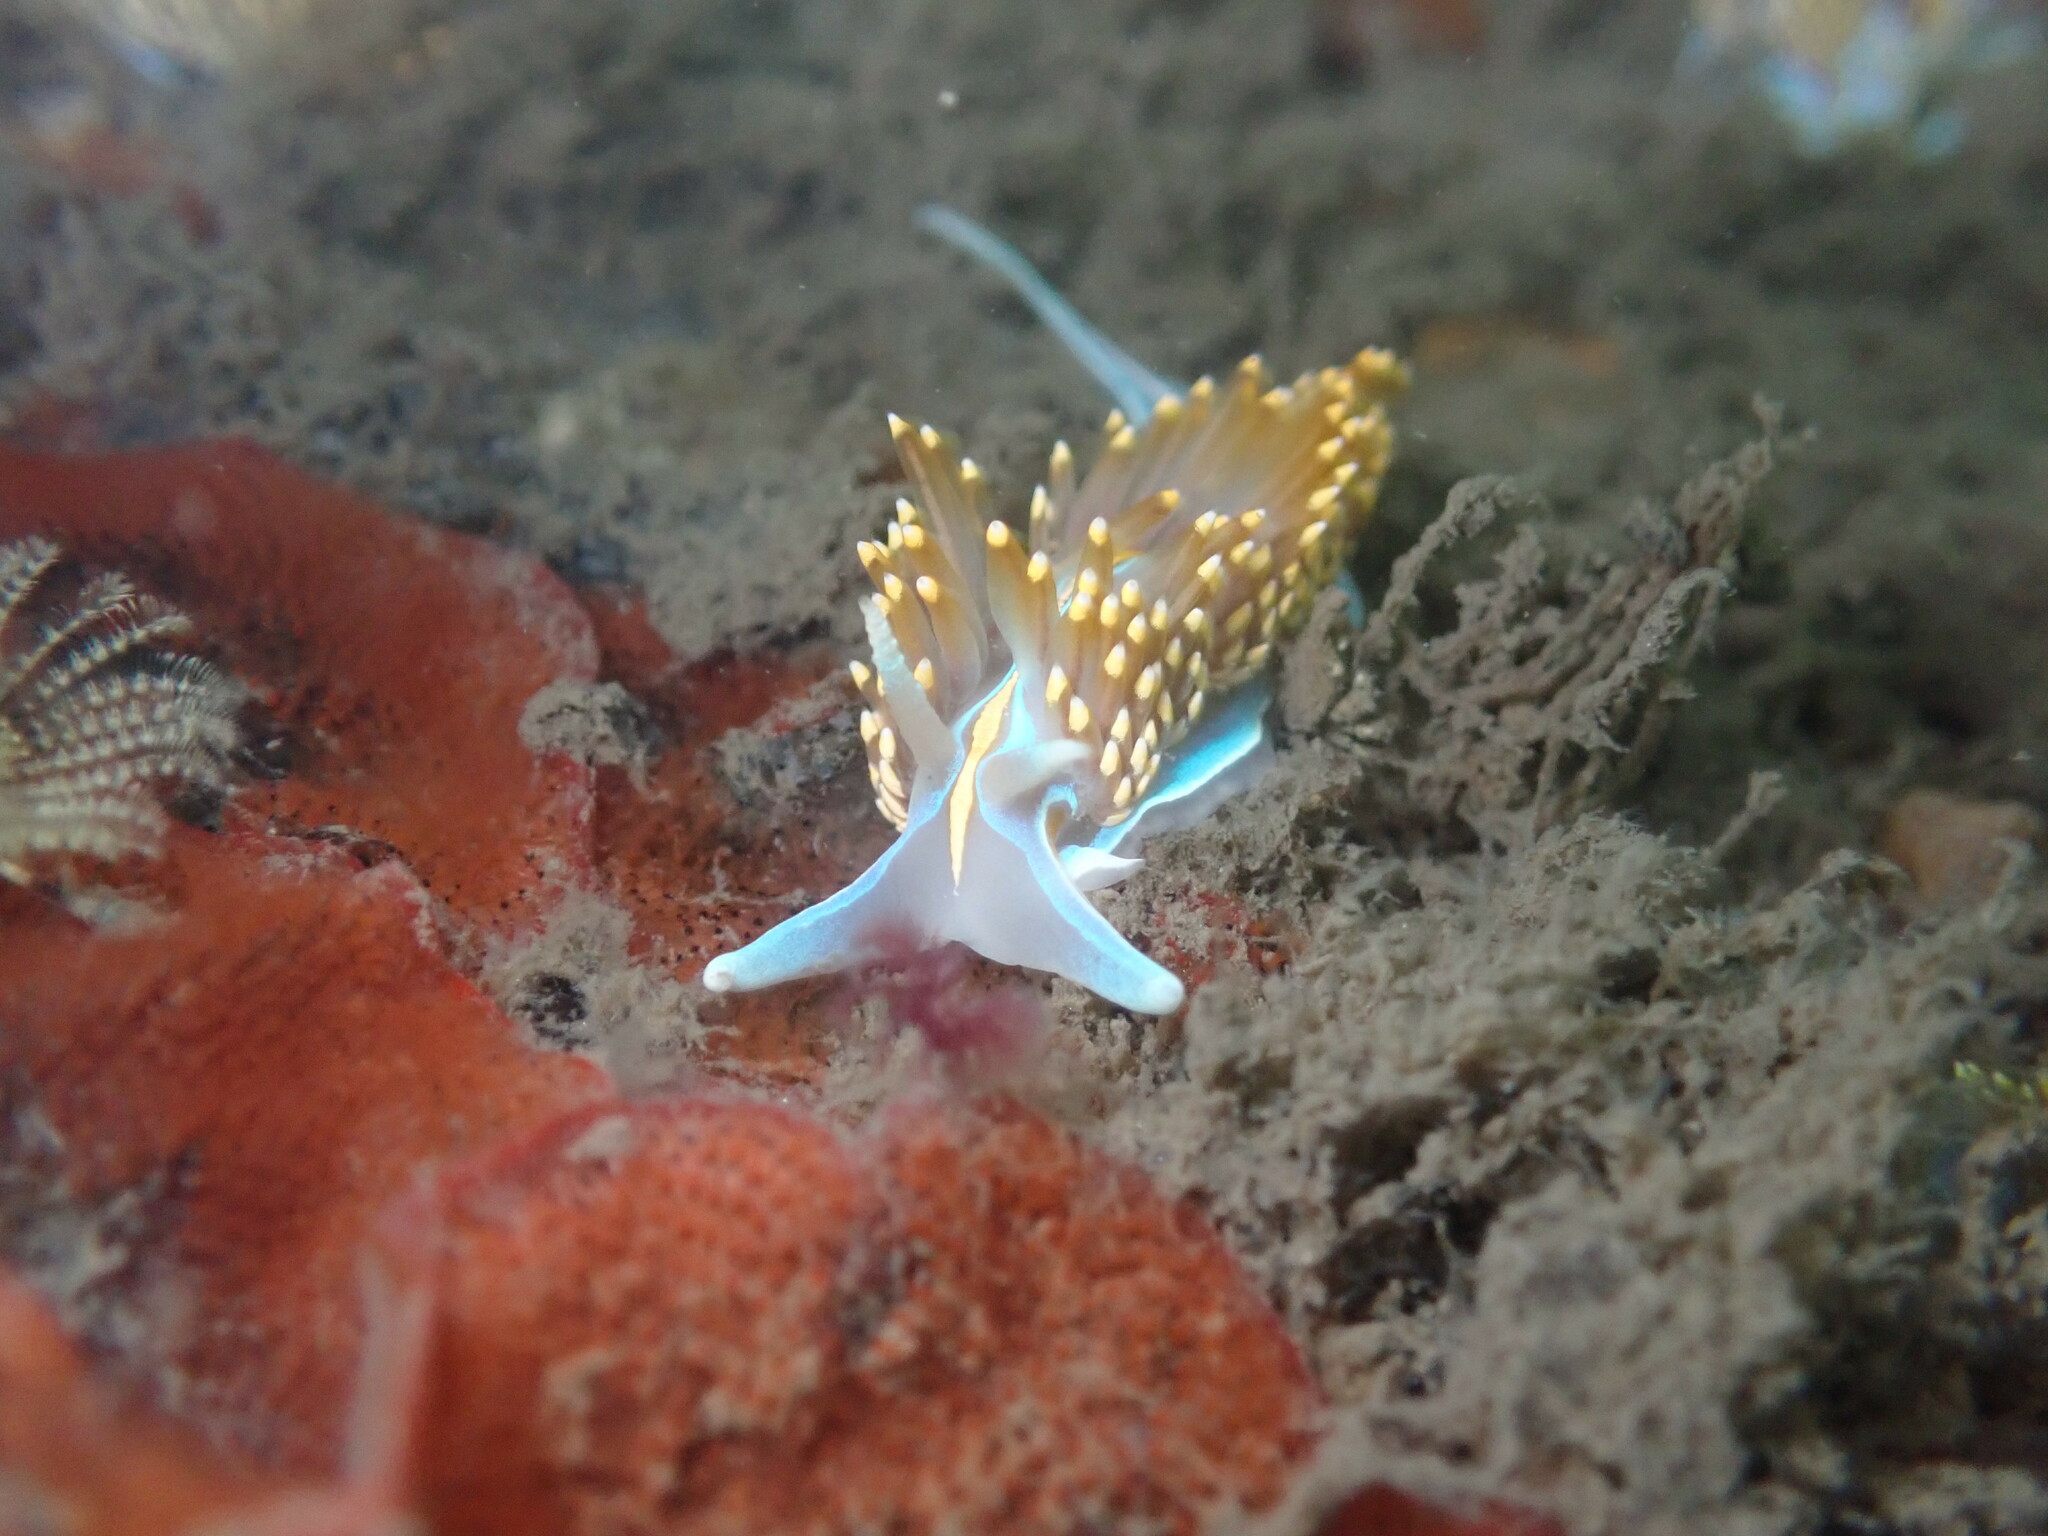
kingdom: Animalia
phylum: Mollusca
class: Gastropoda
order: Nudibranchia
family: Myrrhinidae
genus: Hermissenda
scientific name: Hermissenda opalescens
